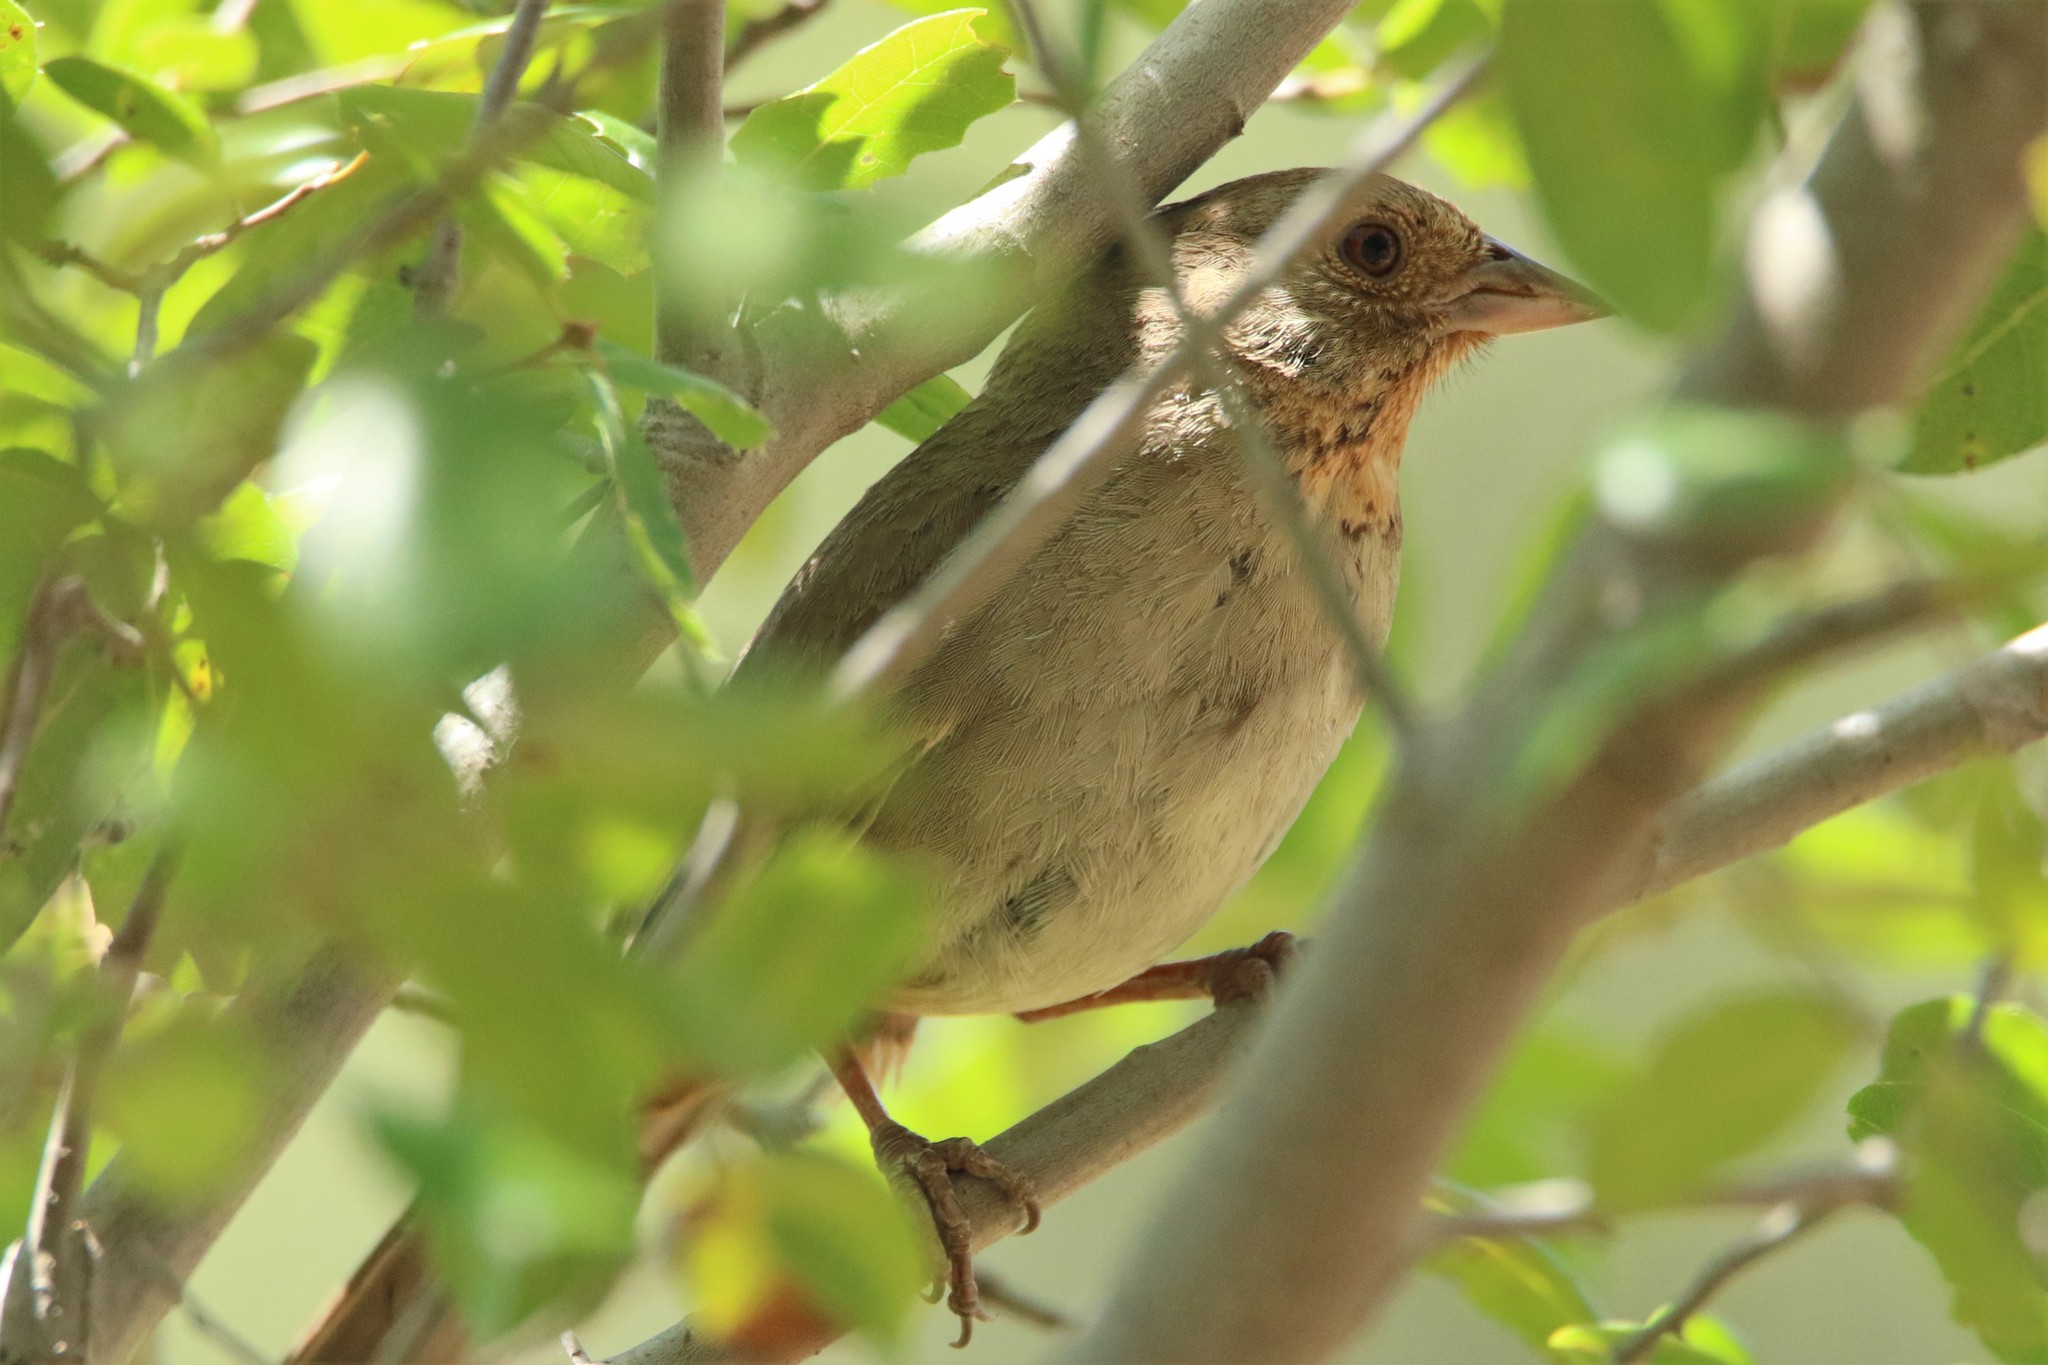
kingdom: Animalia
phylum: Chordata
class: Aves
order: Passeriformes
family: Passerellidae
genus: Melozone
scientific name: Melozone crissalis
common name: California towhee
